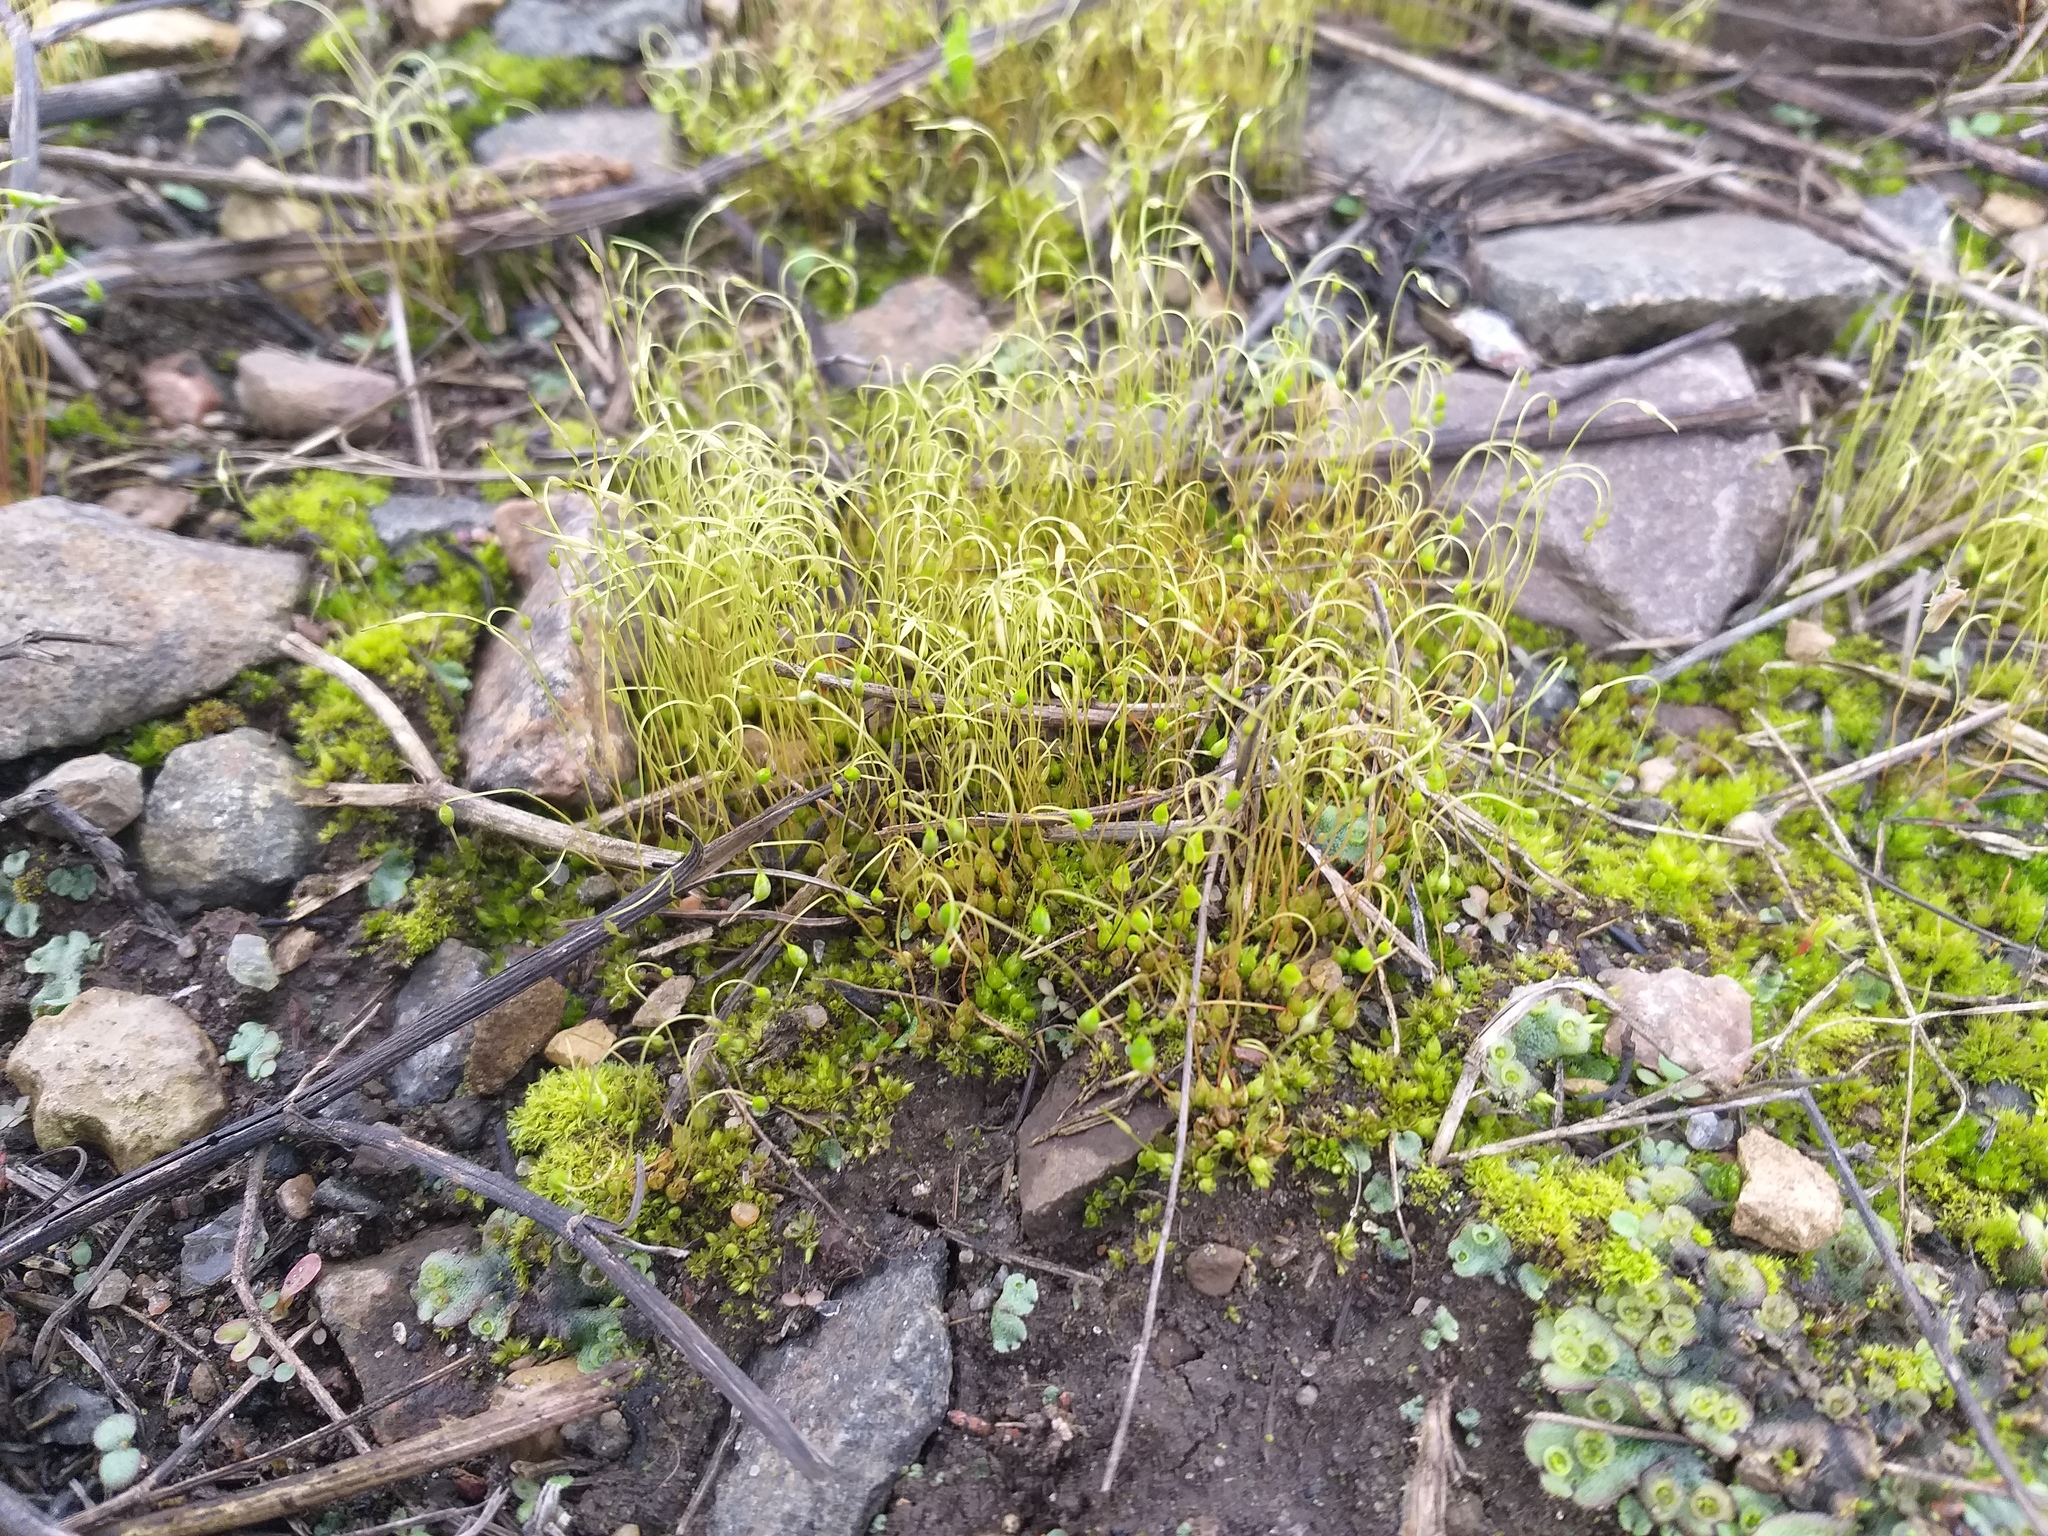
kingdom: Plantae
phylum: Bryophyta
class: Bryopsida
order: Funariales
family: Funariaceae
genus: Funaria
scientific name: Funaria hygrometrica
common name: Common cord moss
